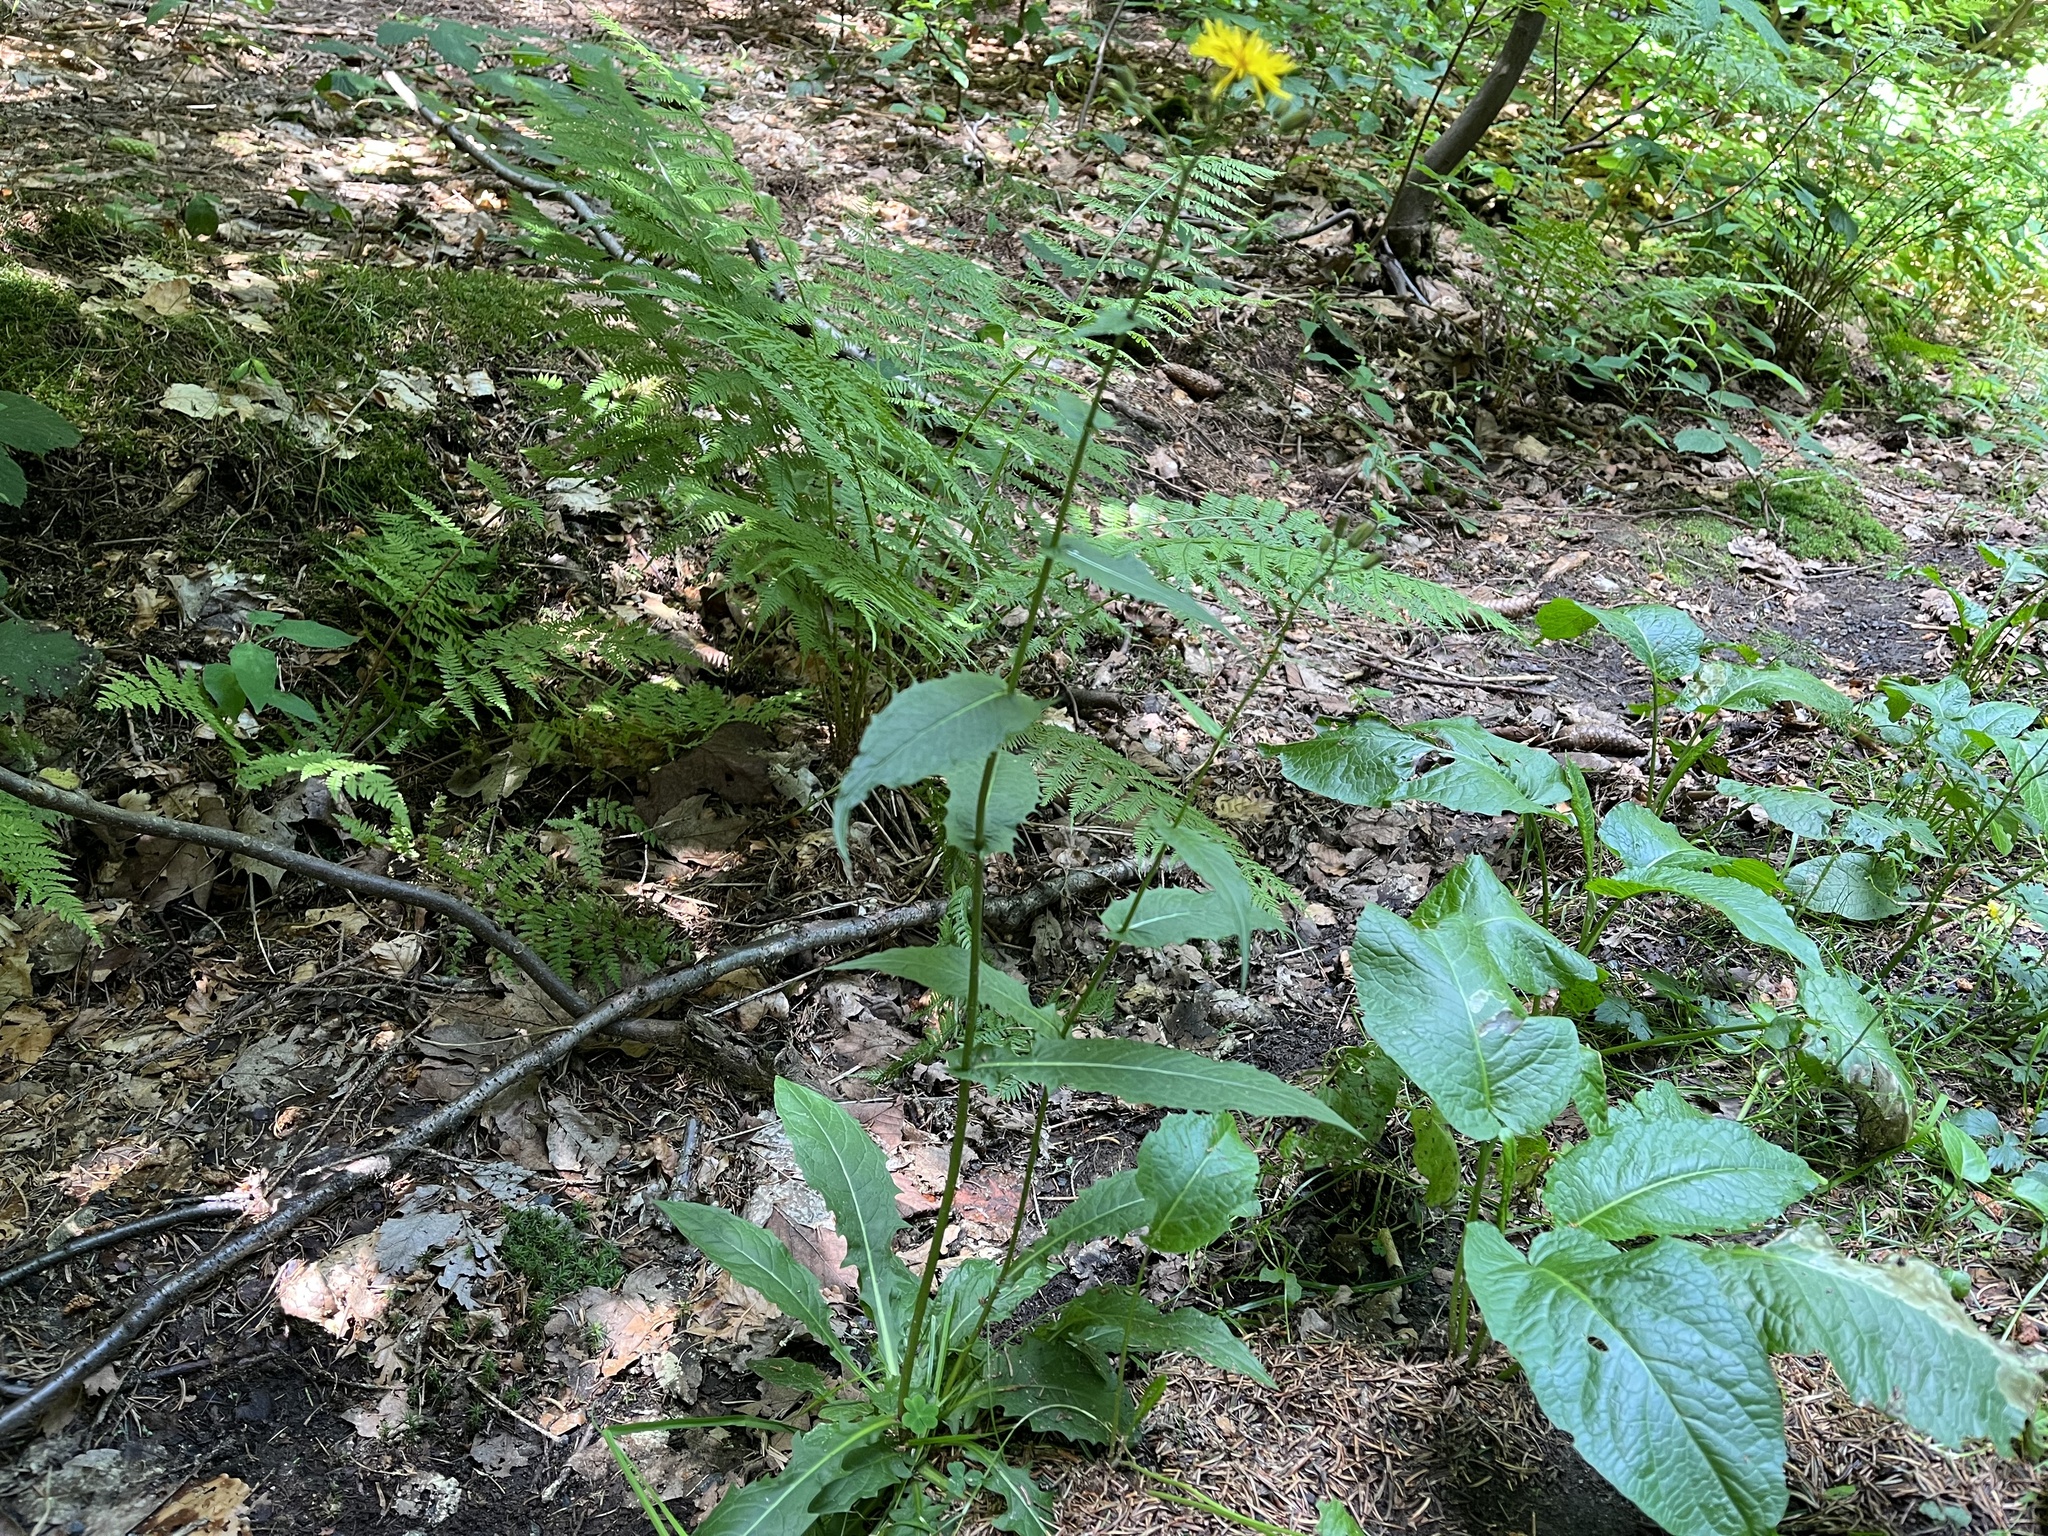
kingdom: Plantae
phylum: Tracheophyta
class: Magnoliopsida
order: Asterales
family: Asteraceae
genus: Crepis
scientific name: Crepis paludosa
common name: Marsh hawk's-beard
